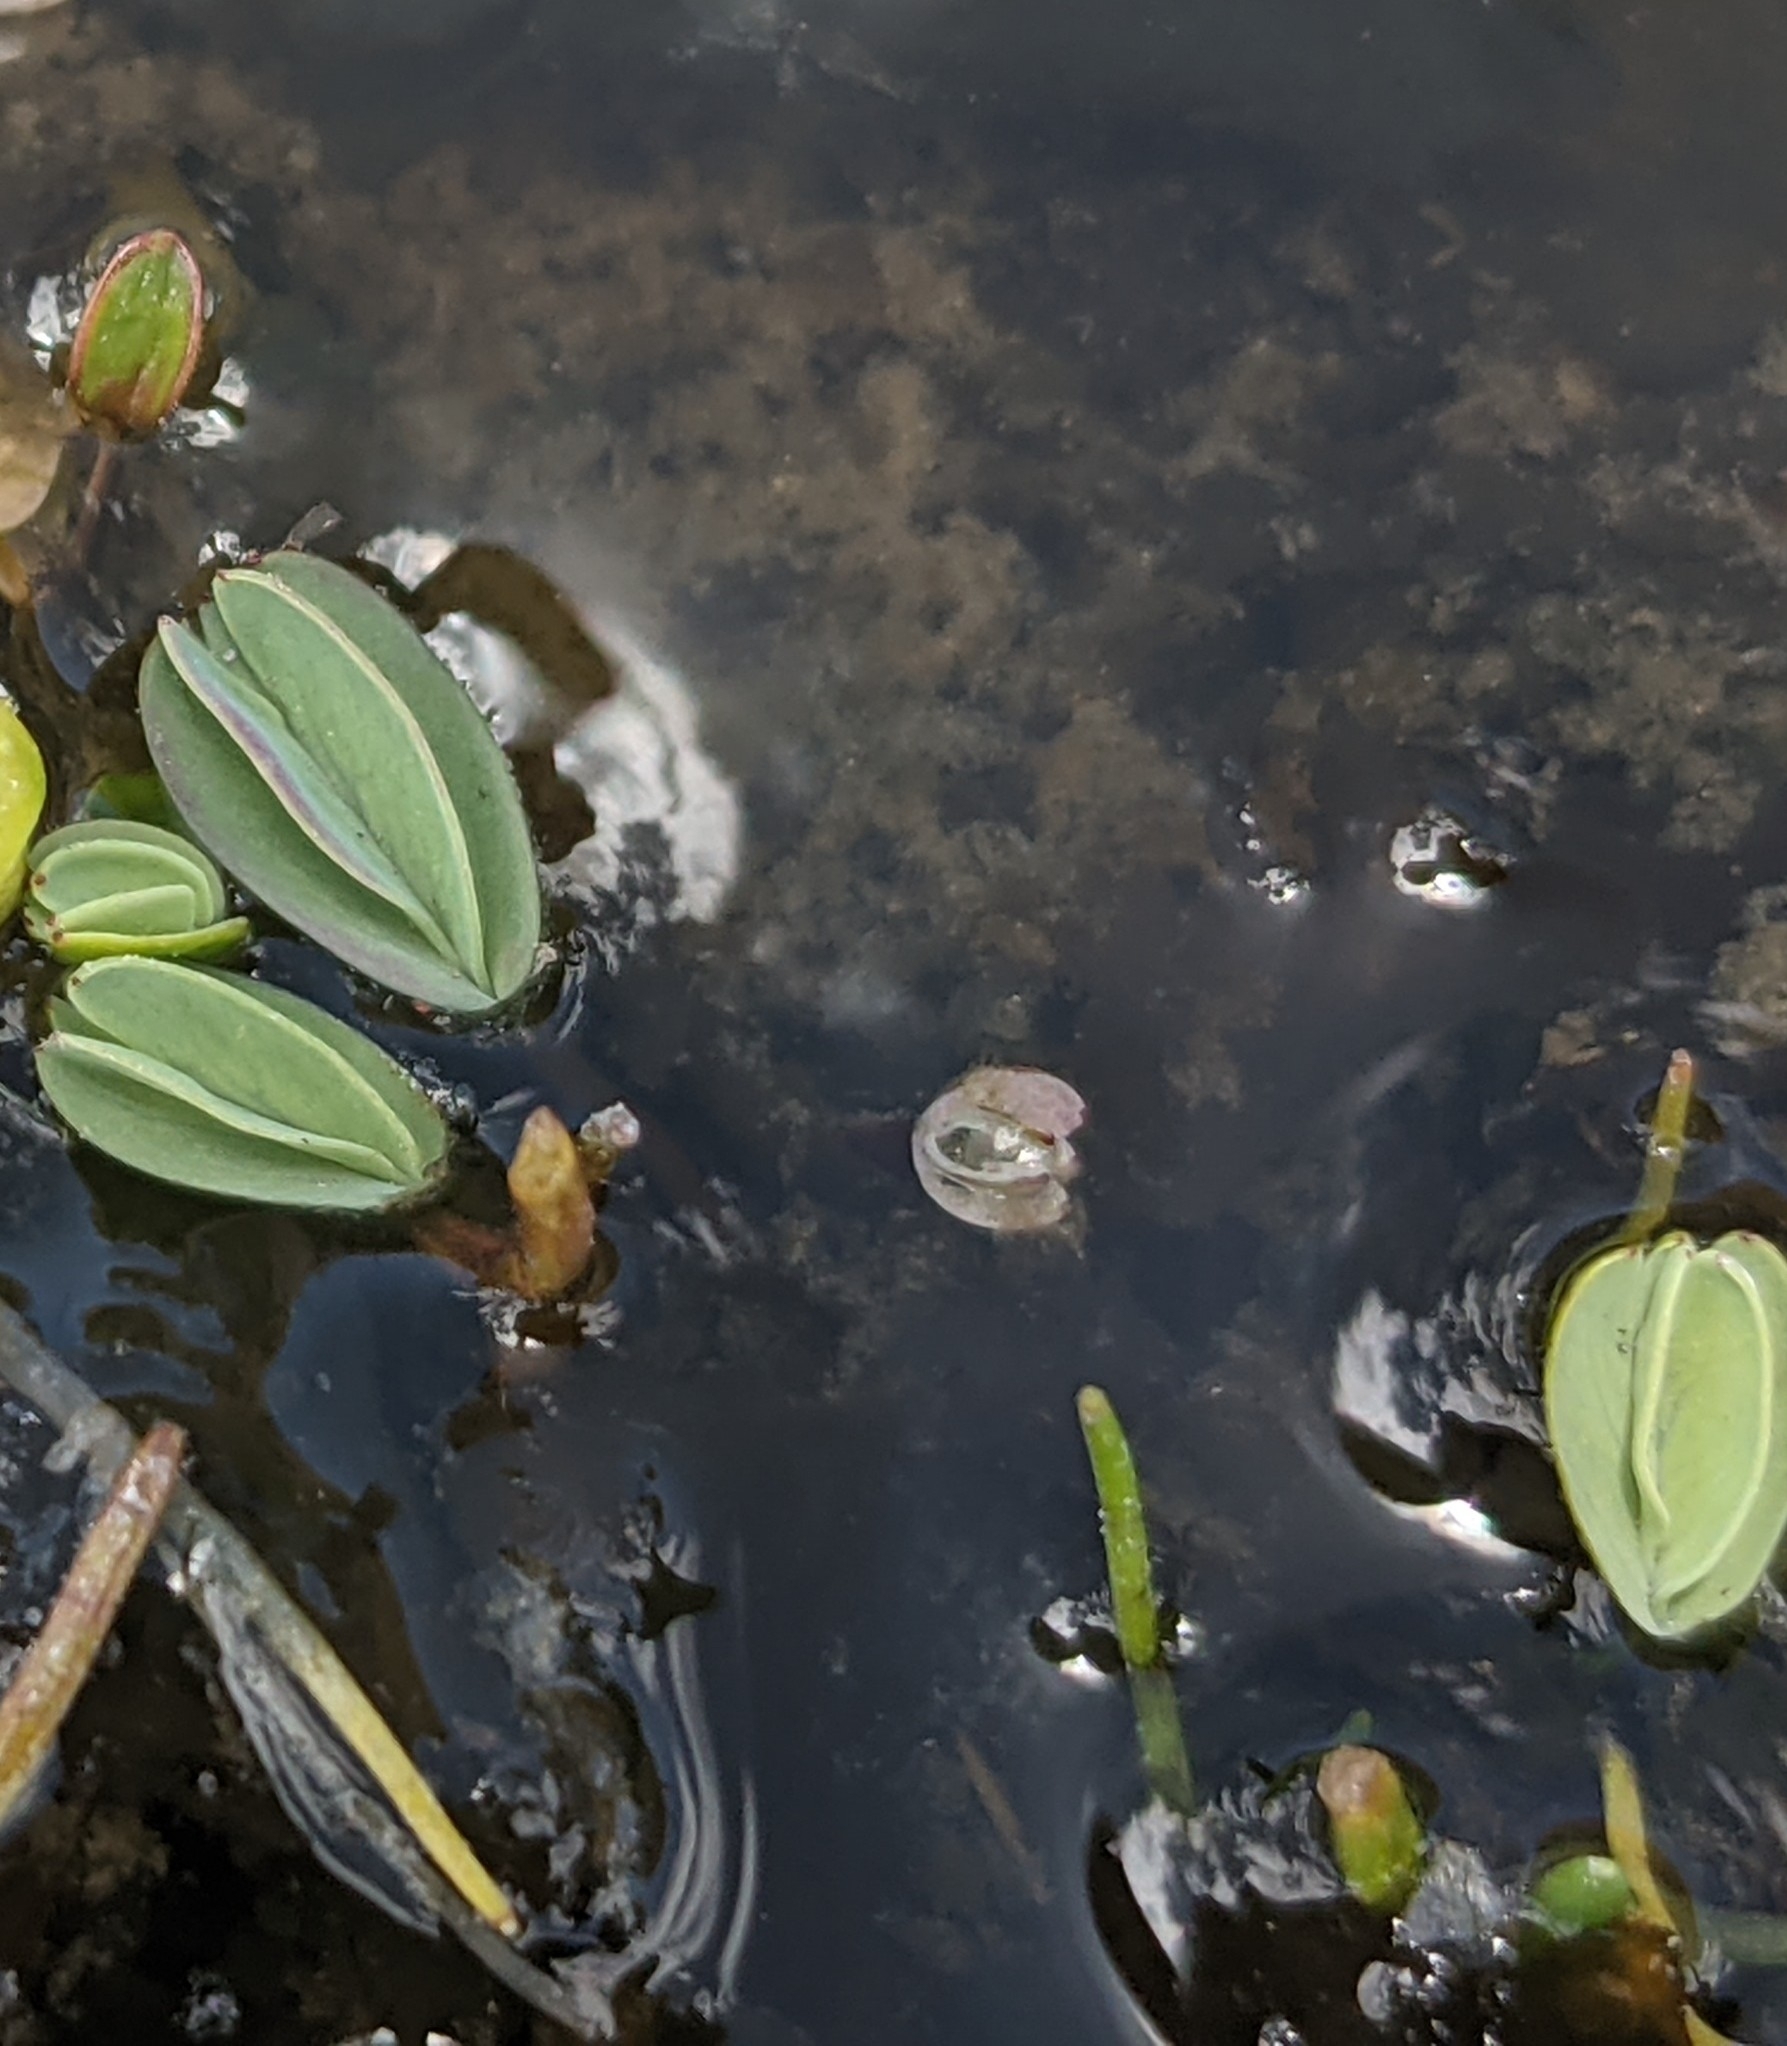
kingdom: Plantae
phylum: Tracheophyta
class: Magnoliopsida
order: Rosales
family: Rosaceae
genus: Lachemilla
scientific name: Lachemilla diplophylla
